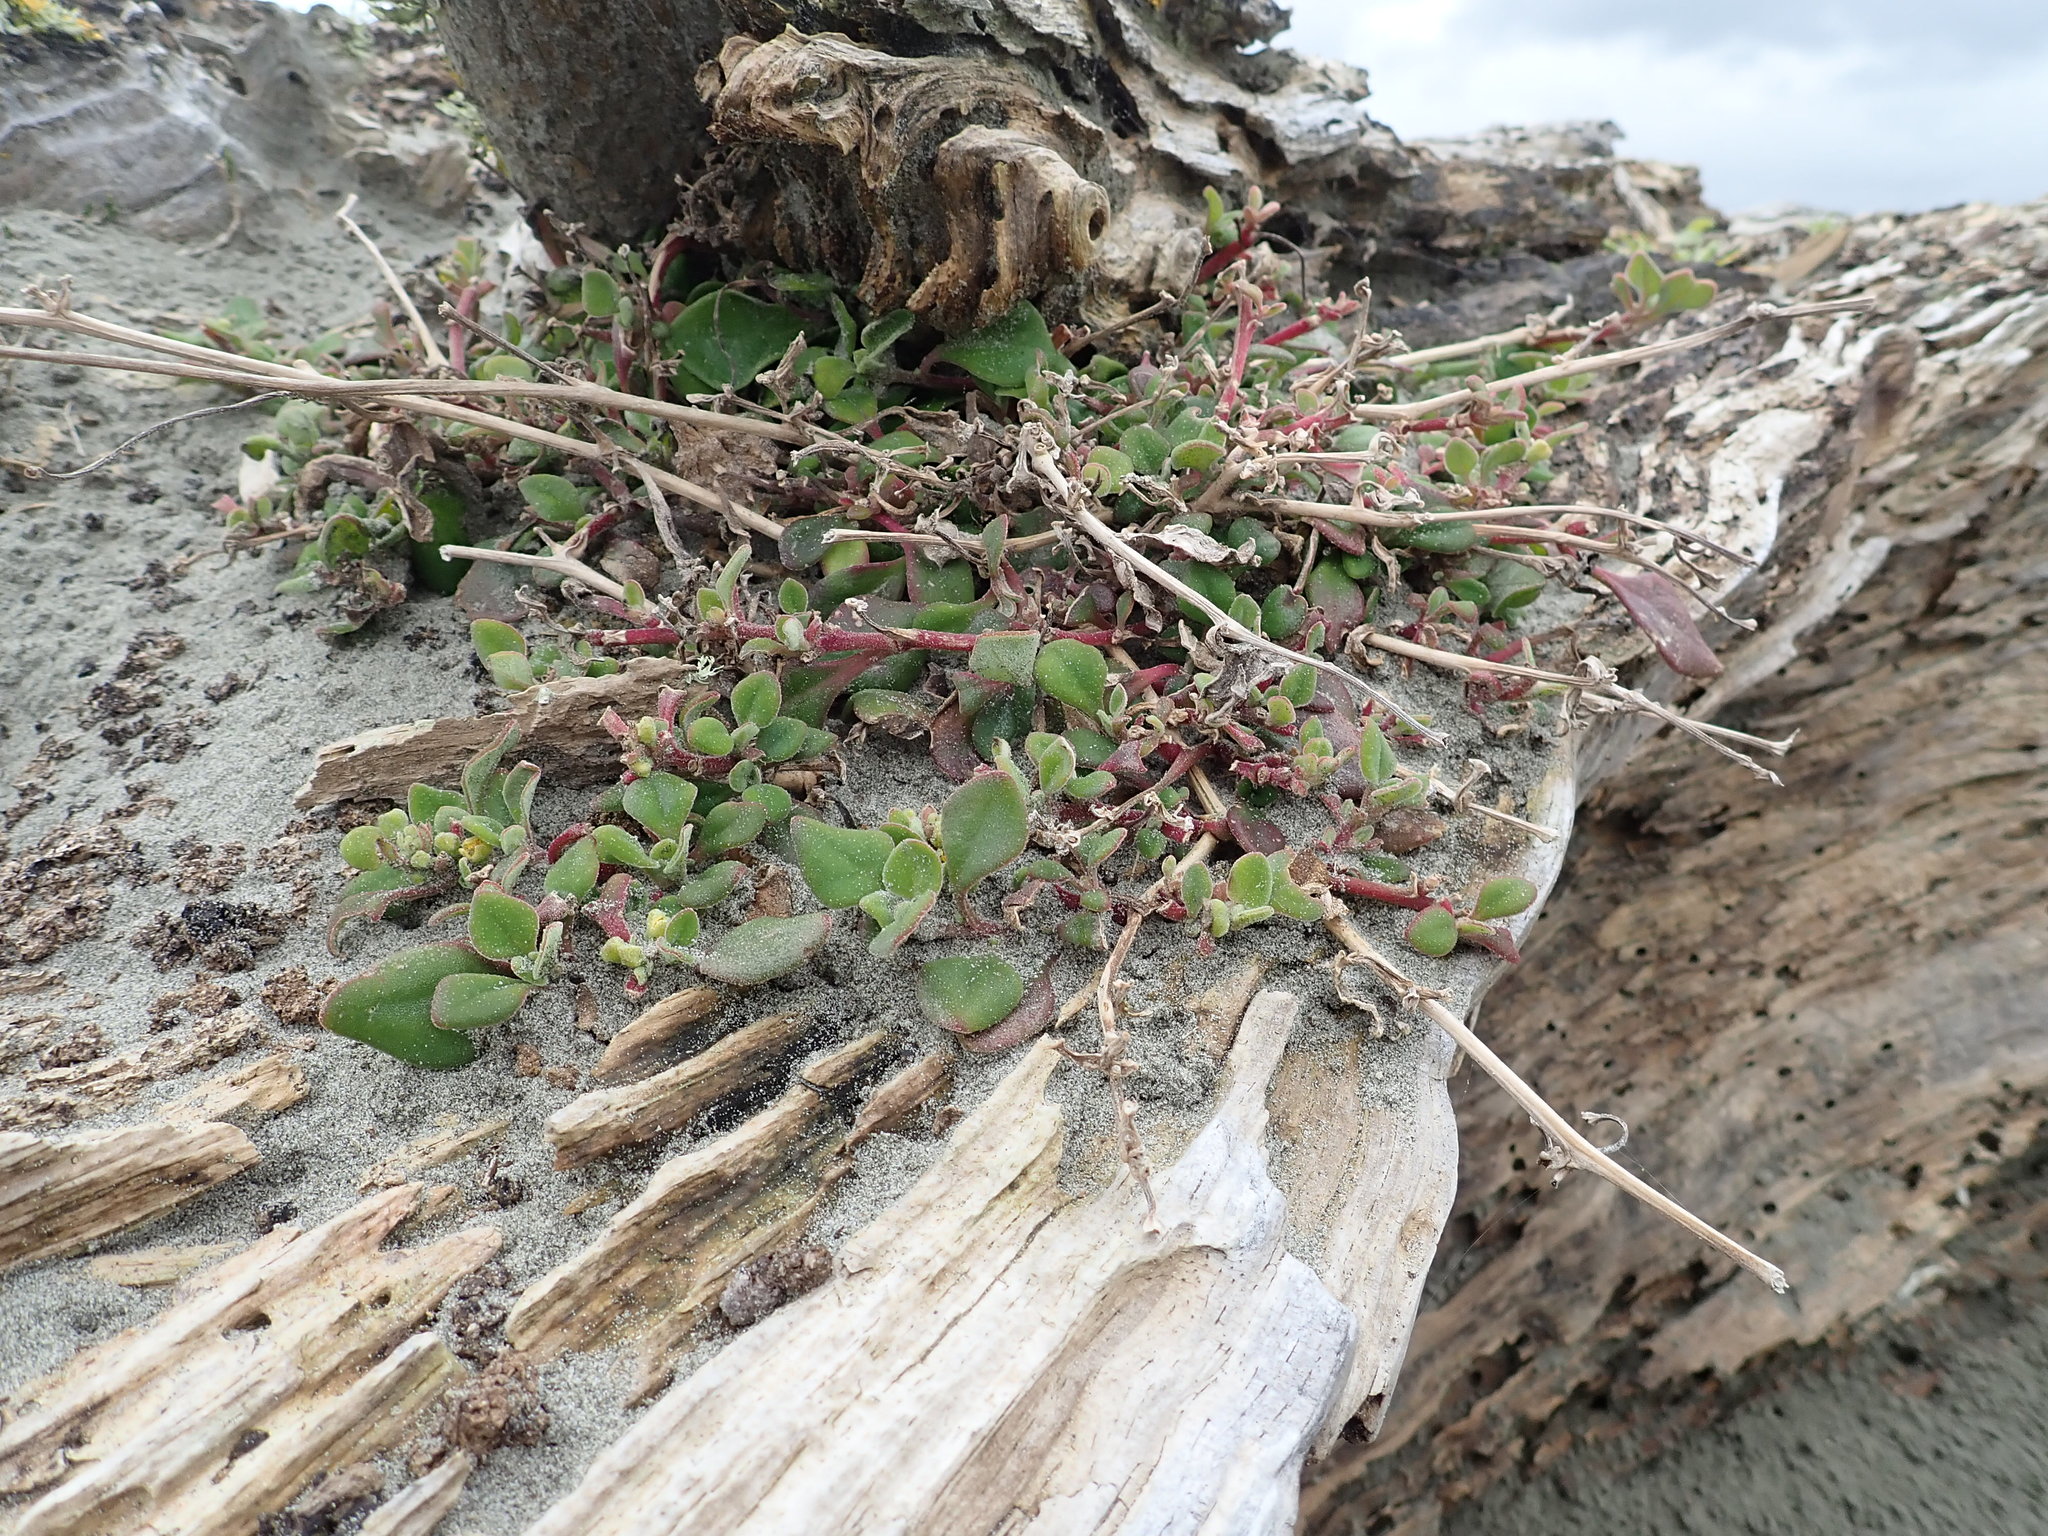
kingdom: Plantae
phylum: Tracheophyta
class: Magnoliopsida
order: Caryophyllales
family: Aizoaceae
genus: Tetragonia
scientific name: Tetragonia implexicoma
